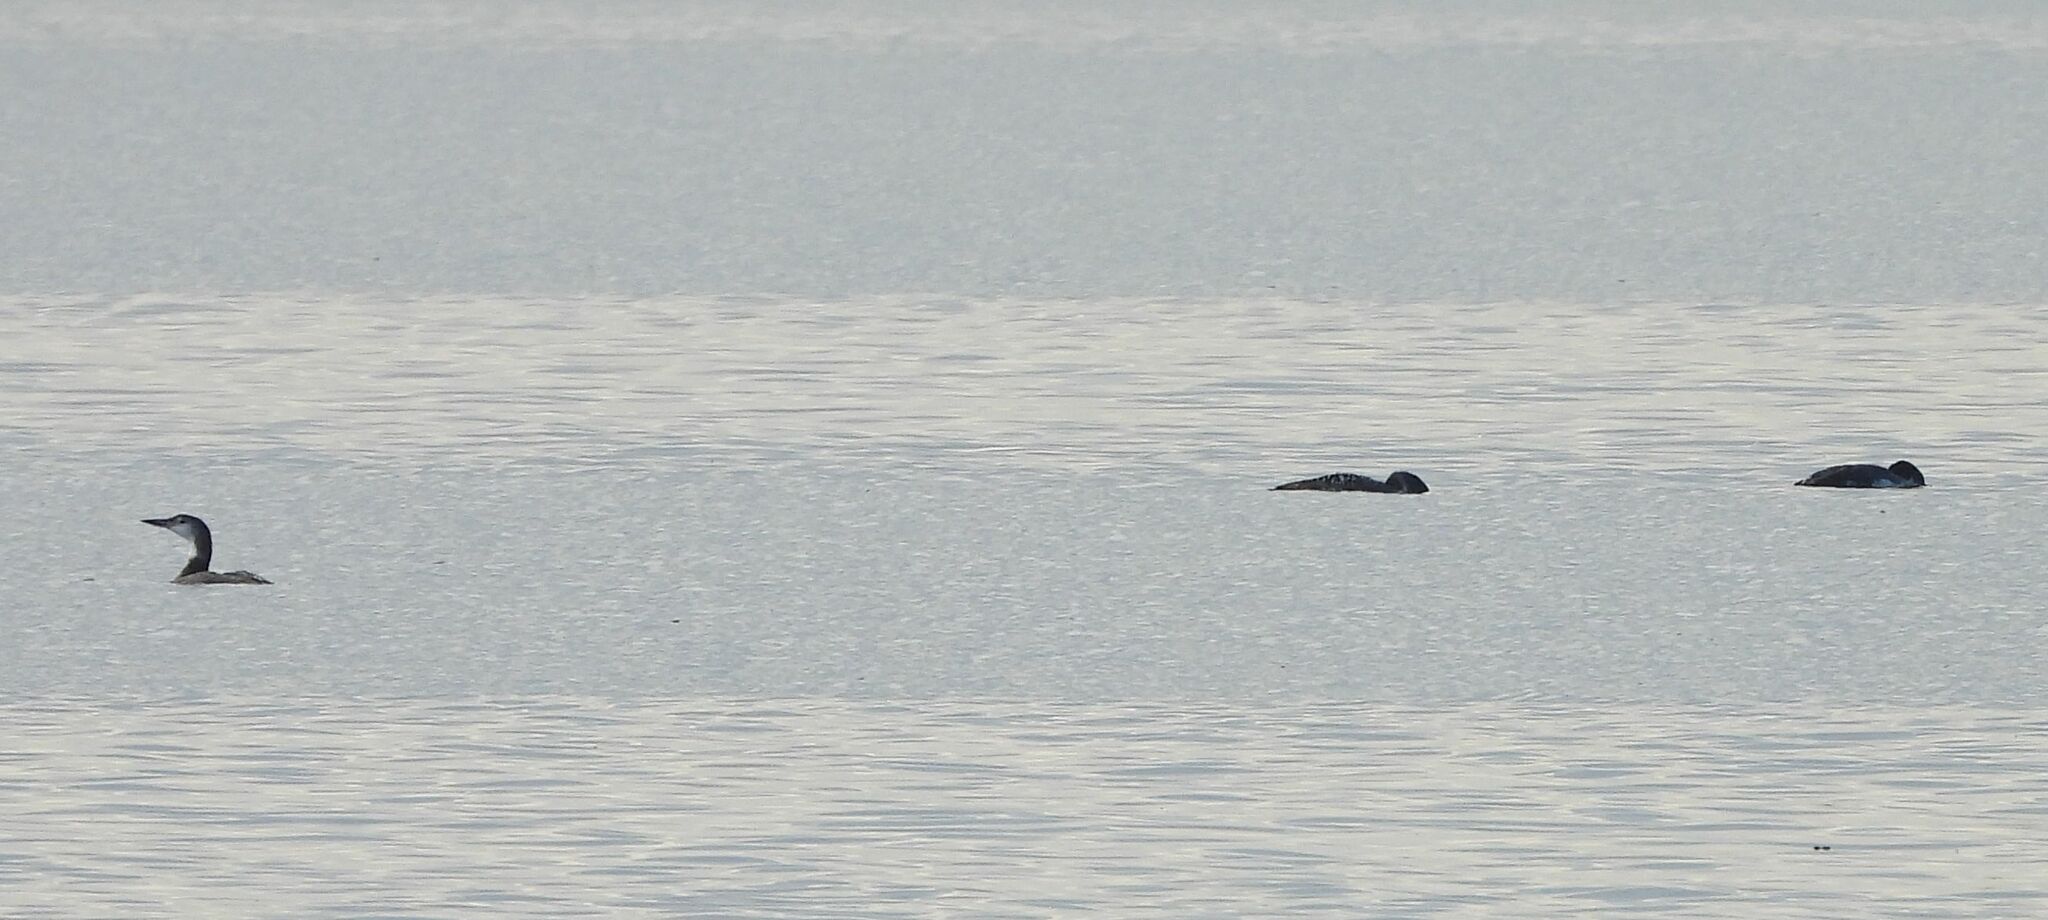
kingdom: Animalia
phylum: Chordata
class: Aves
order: Gaviiformes
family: Gaviidae
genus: Gavia
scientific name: Gavia immer
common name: Common loon
